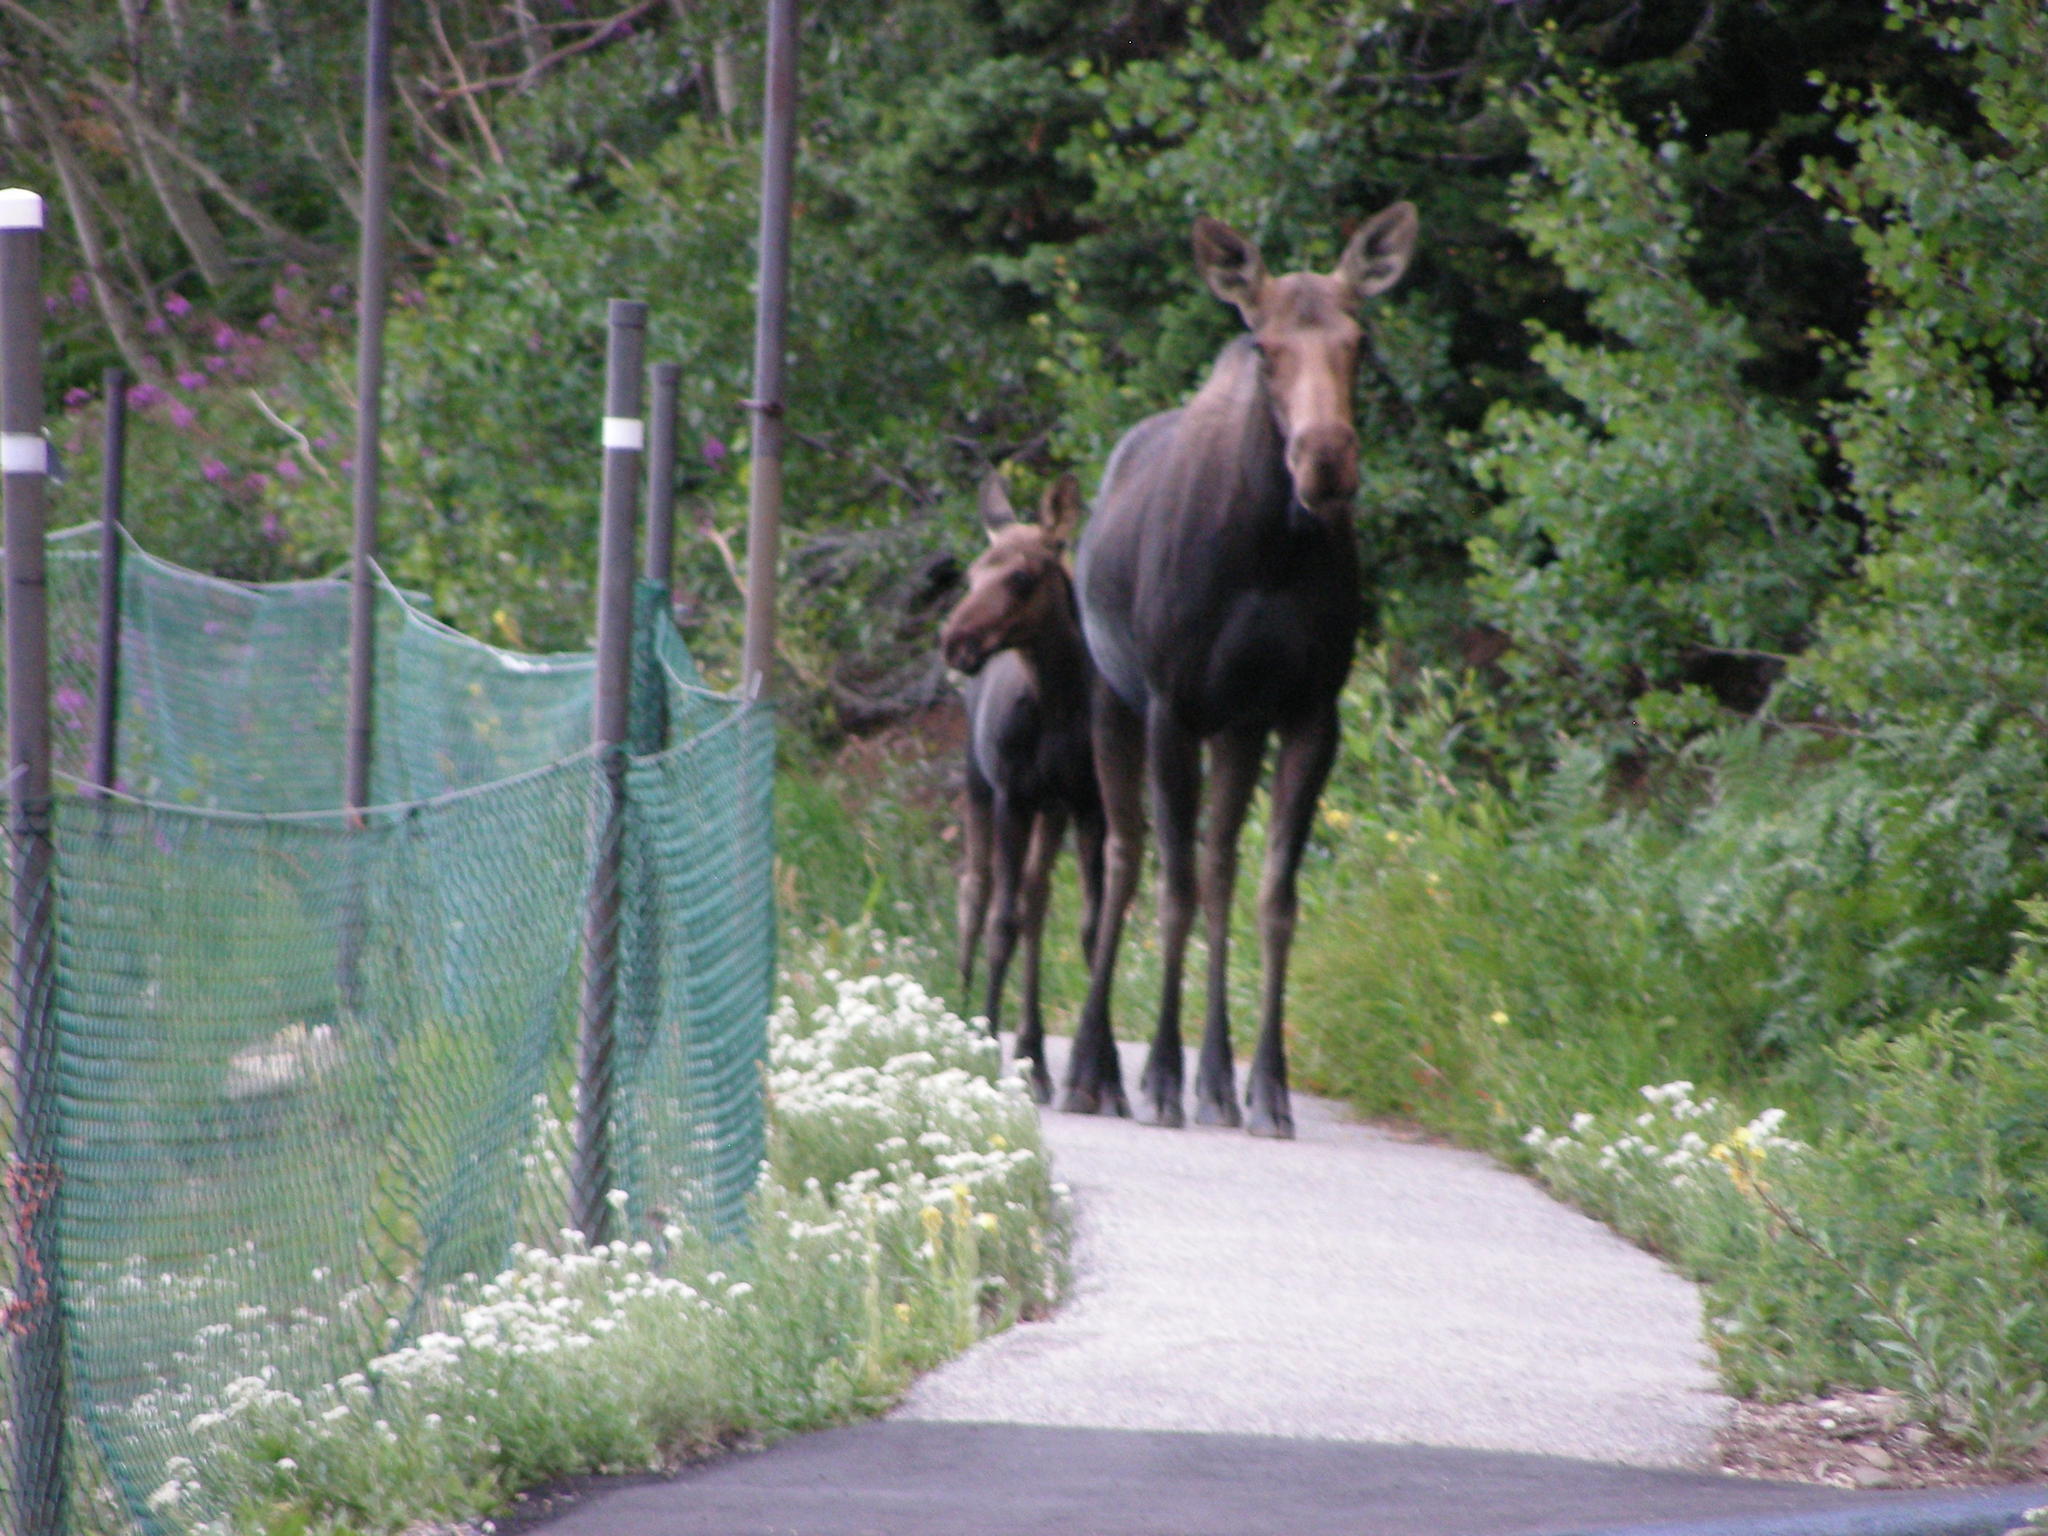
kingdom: Animalia
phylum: Chordata
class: Mammalia
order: Artiodactyla
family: Cervidae
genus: Alces
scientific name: Alces alces
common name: Moose
